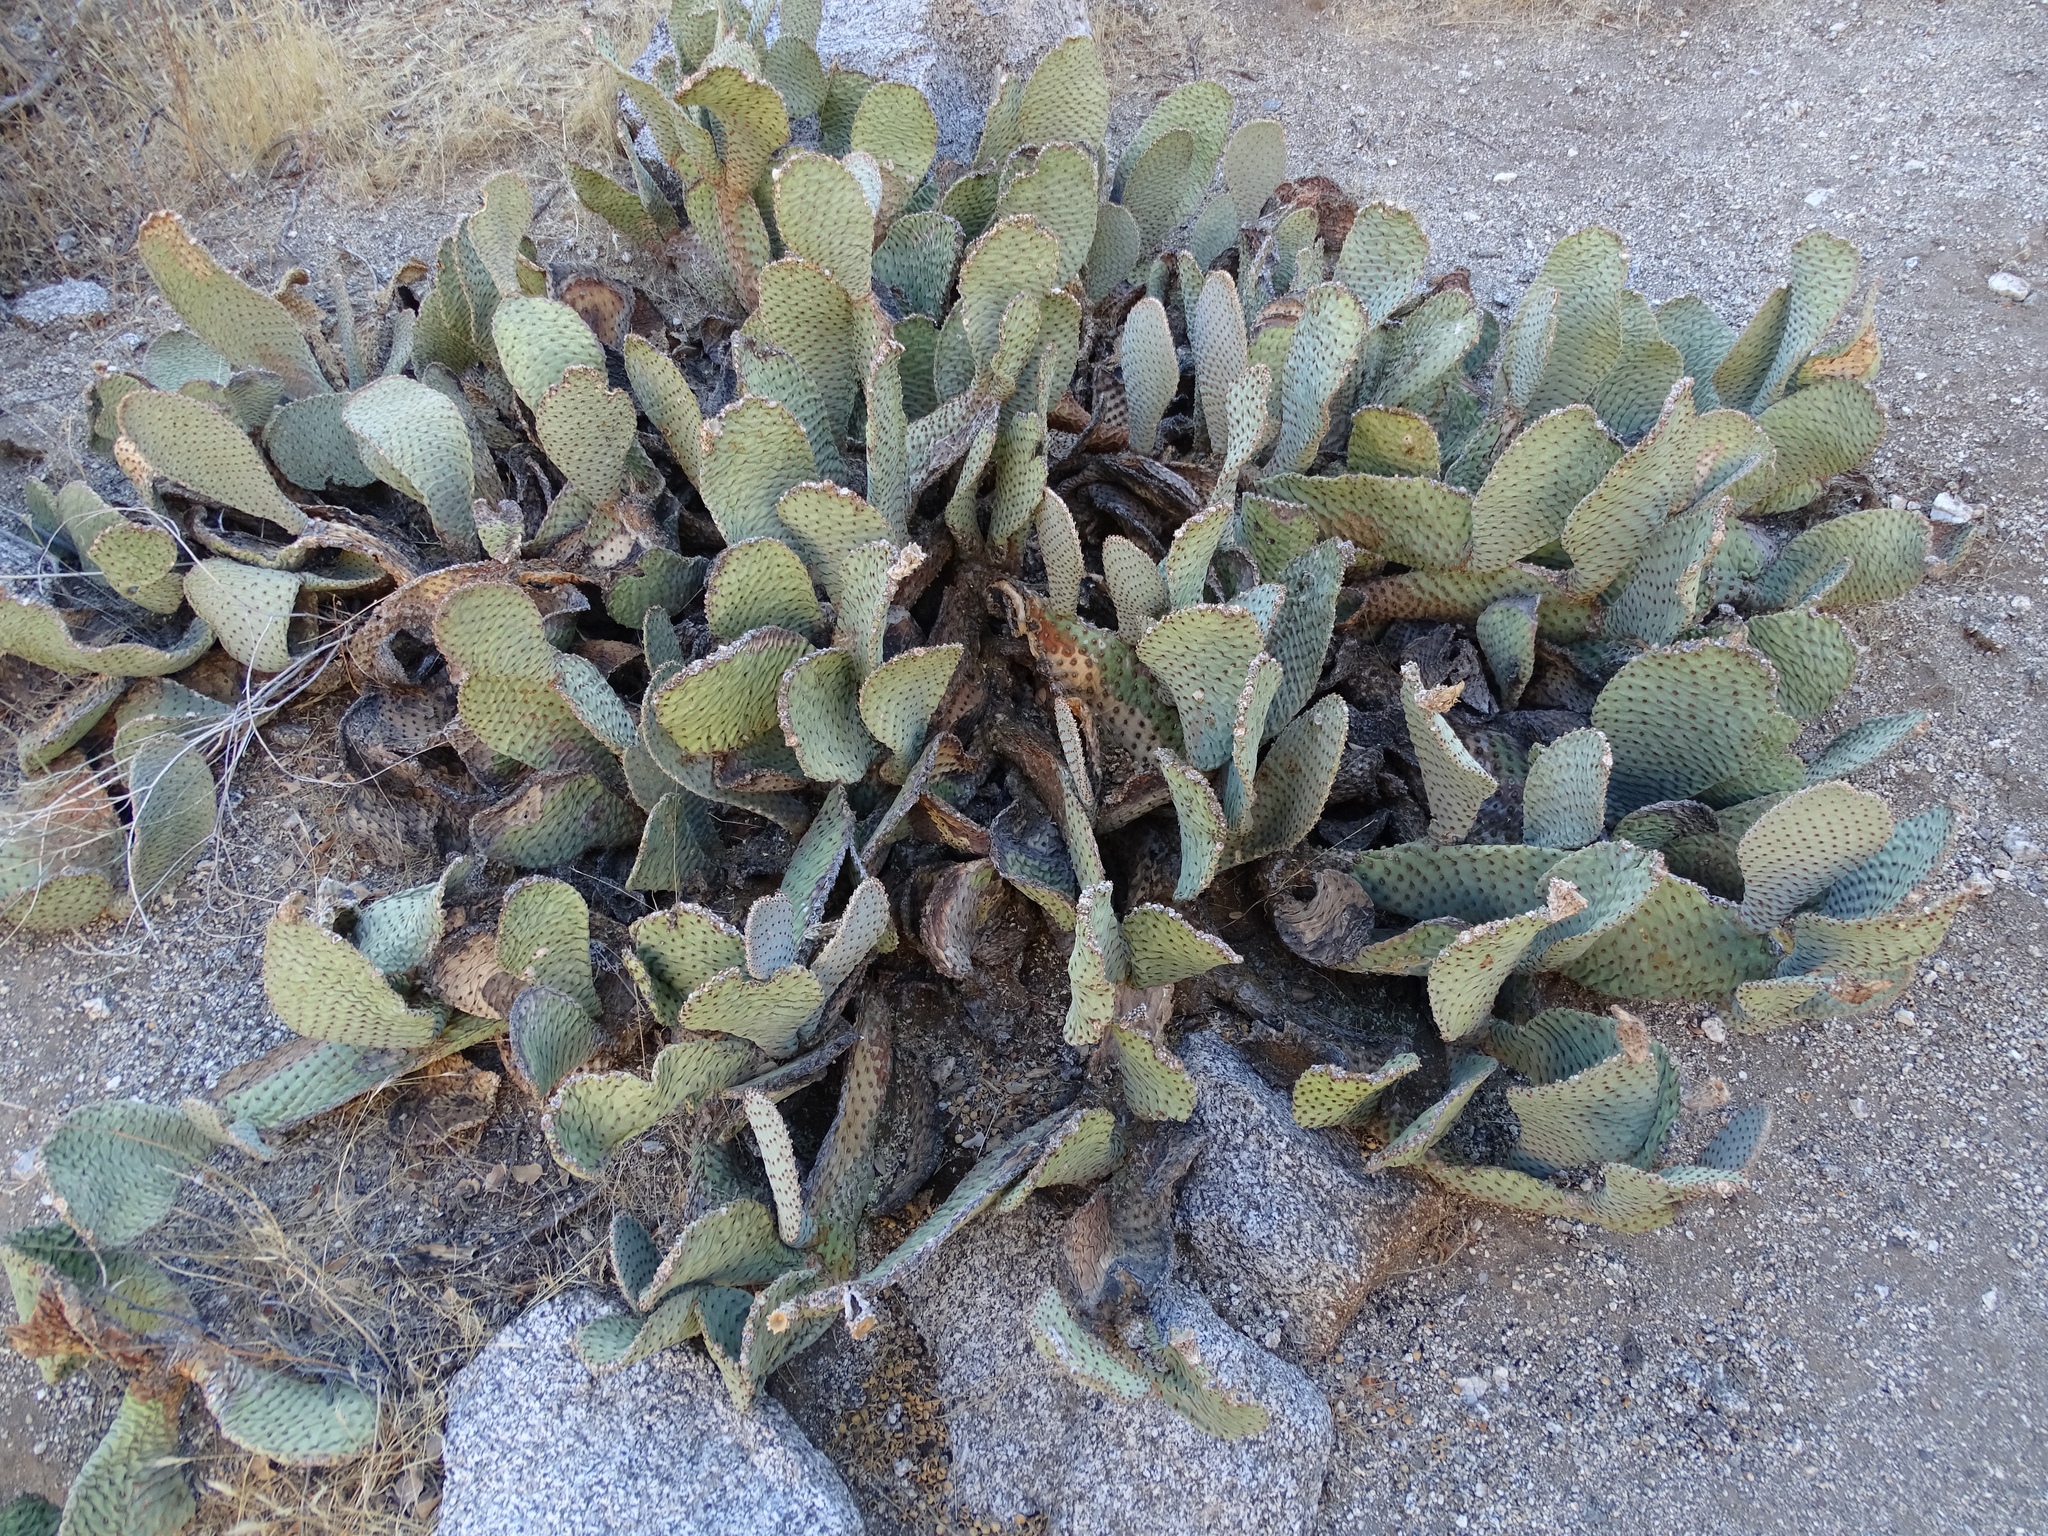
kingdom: Plantae
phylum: Tracheophyta
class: Magnoliopsida
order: Caryophyllales
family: Cactaceae
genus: Opuntia
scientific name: Opuntia basilaris
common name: Beavertail prickly-pear
